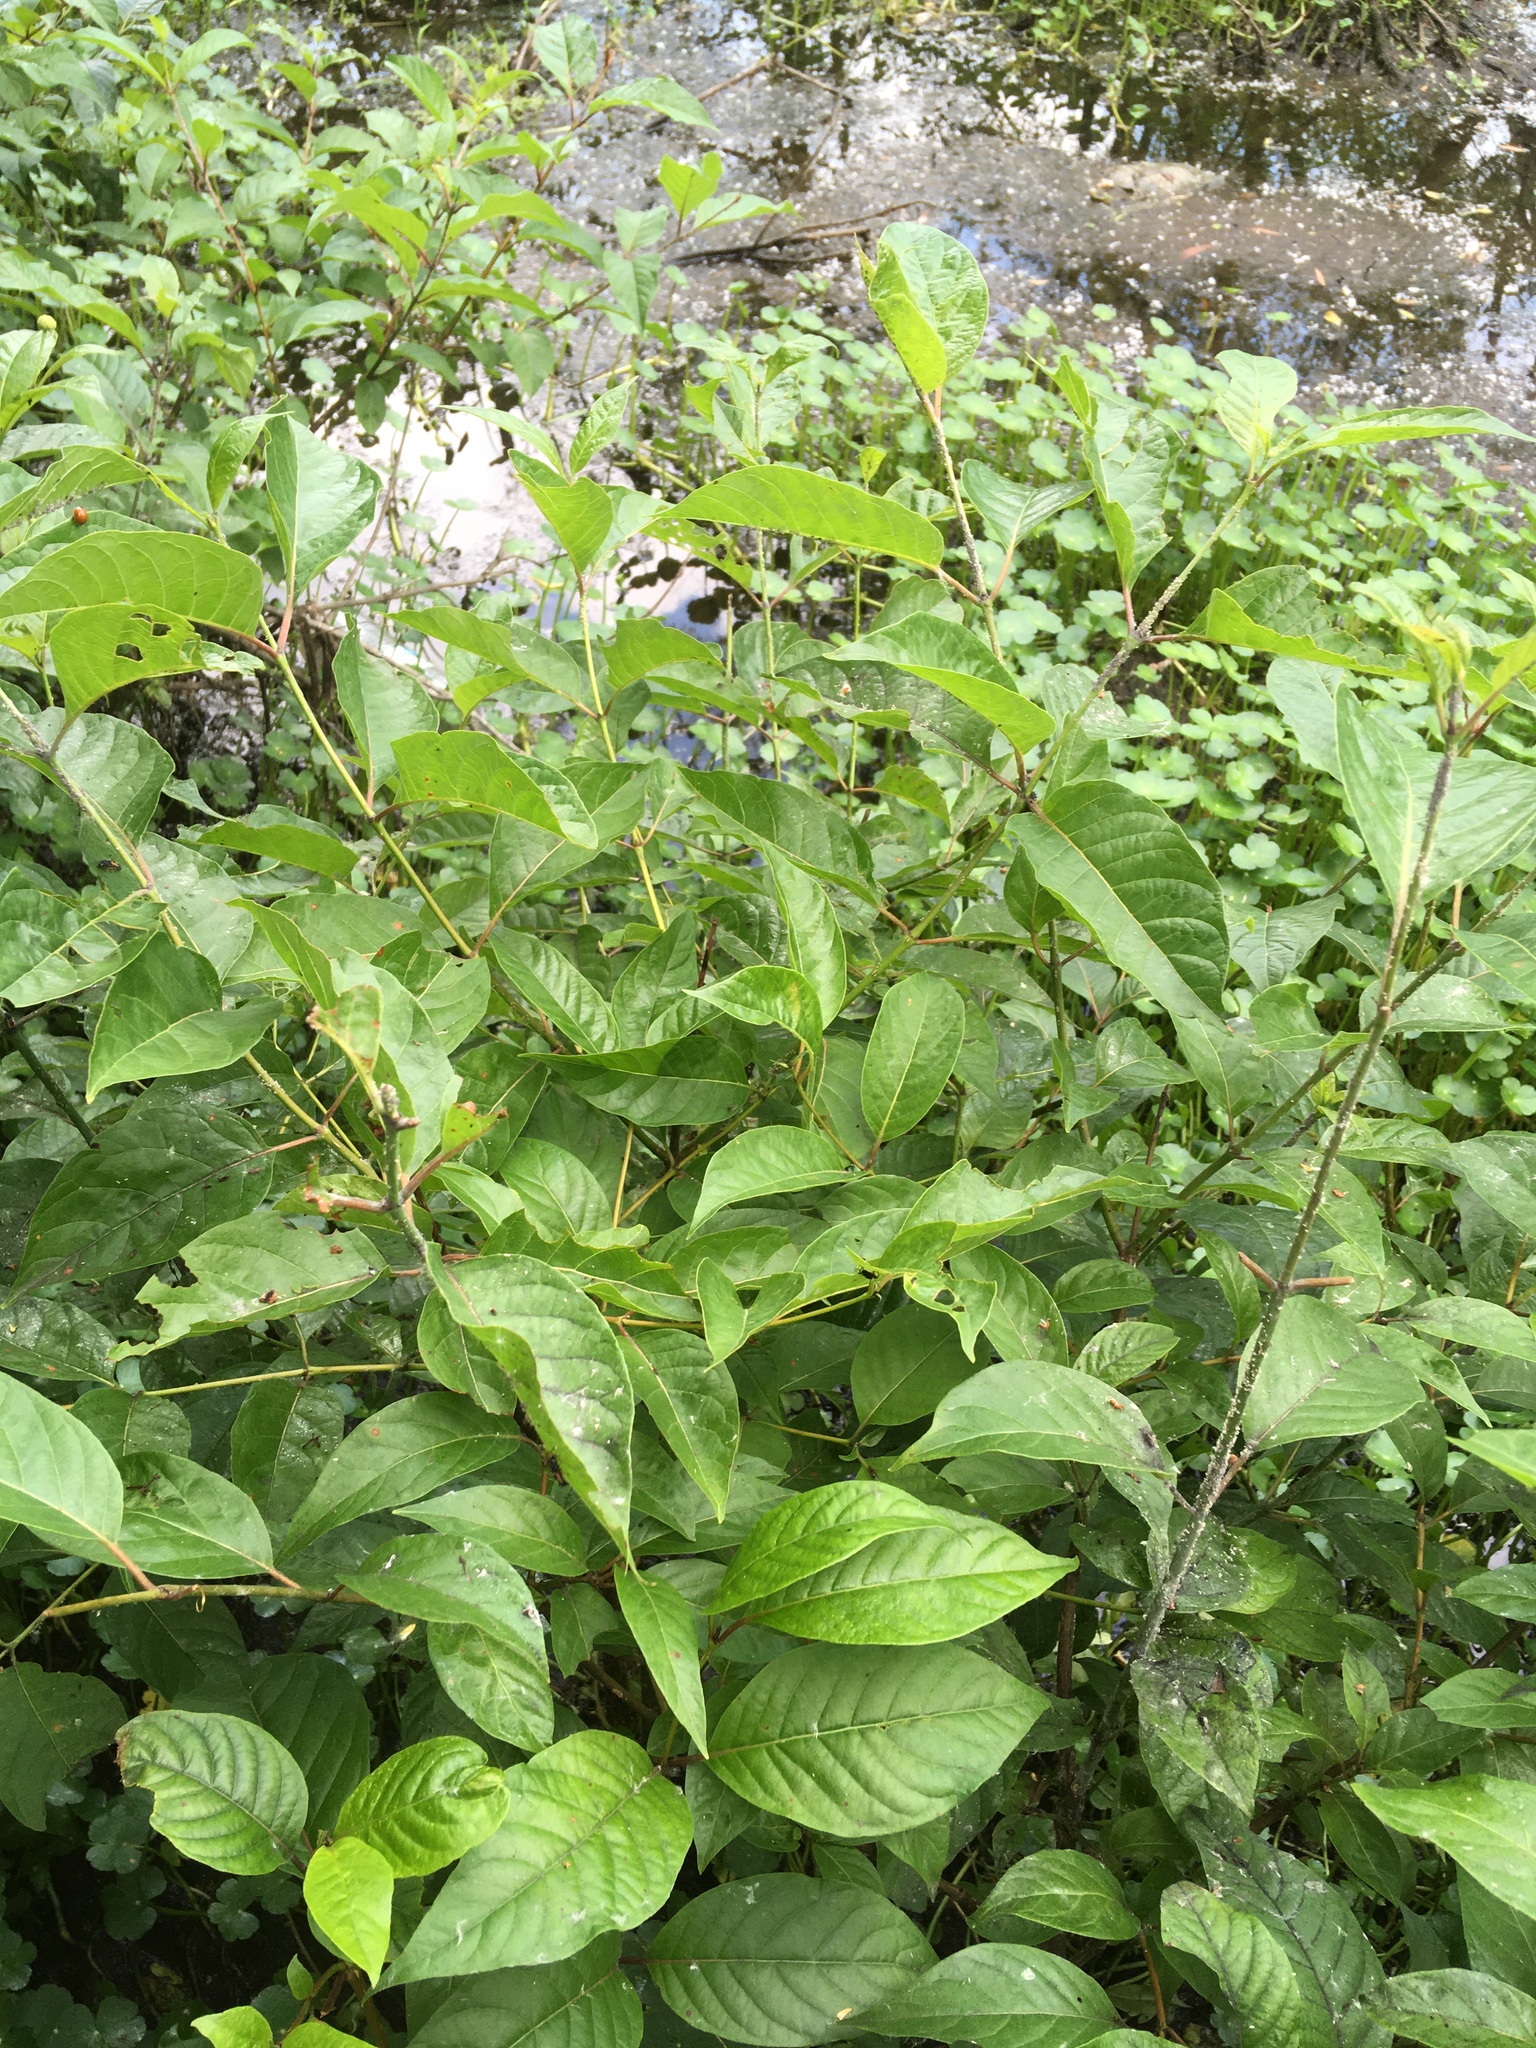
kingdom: Plantae
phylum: Tracheophyta
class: Magnoliopsida
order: Gentianales
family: Rubiaceae
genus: Cephalanthus
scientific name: Cephalanthus occidentalis
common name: Button-willow
